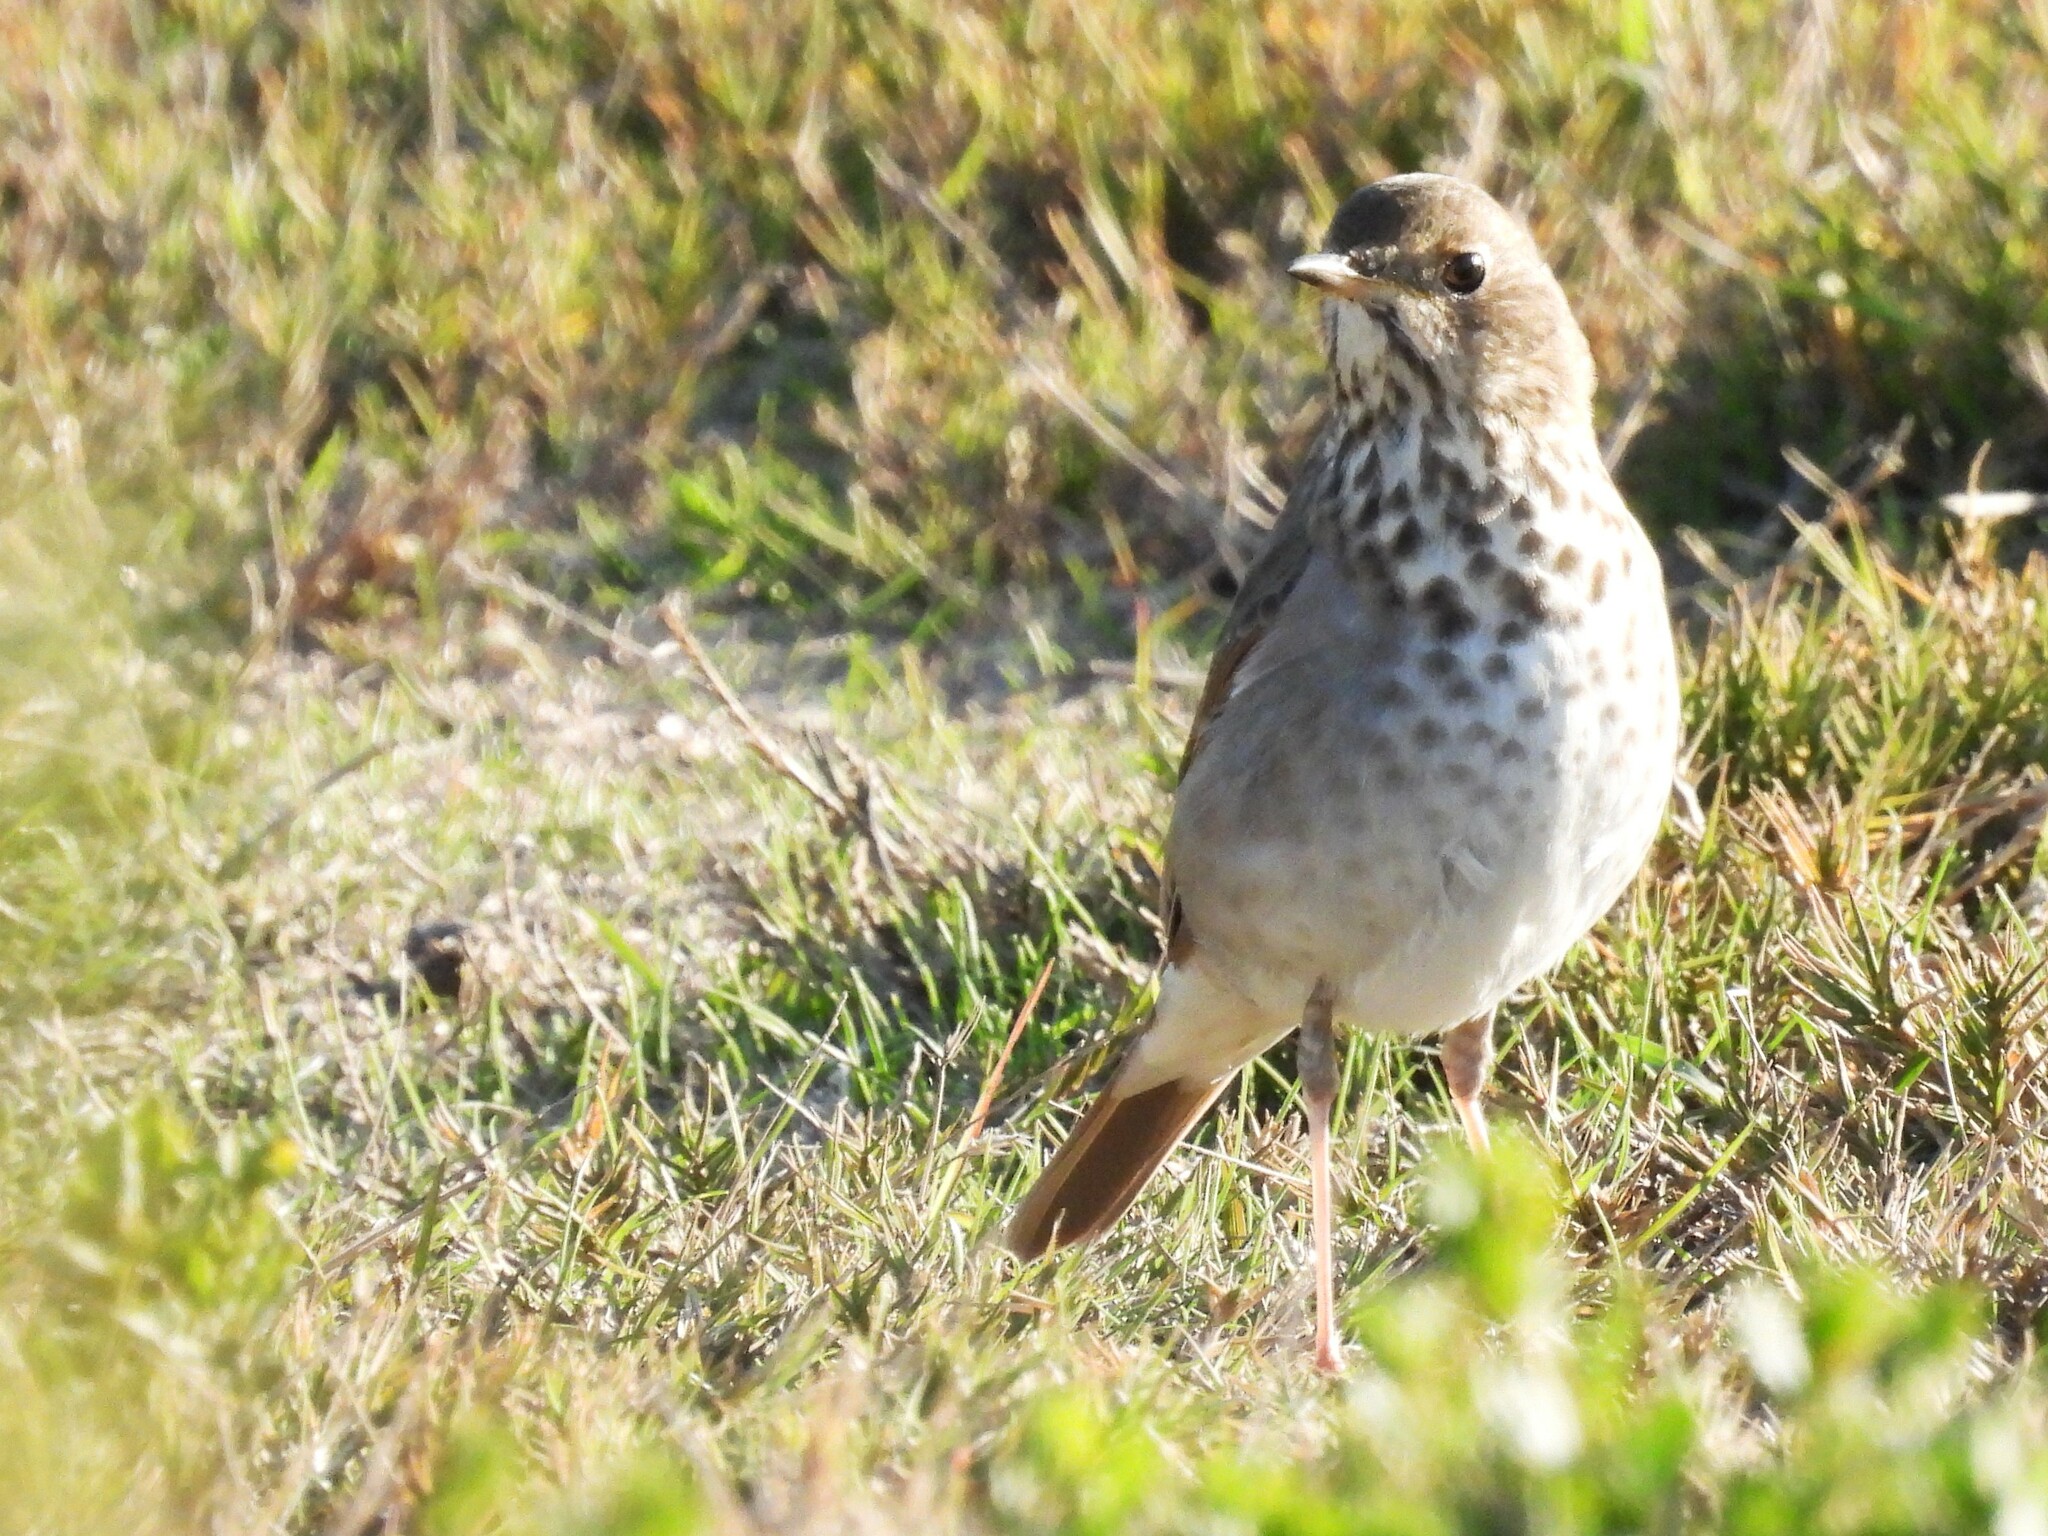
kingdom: Animalia
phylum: Chordata
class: Aves
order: Passeriformes
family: Turdidae
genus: Catharus
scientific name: Catharus guttatus
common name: Hermit thrush
